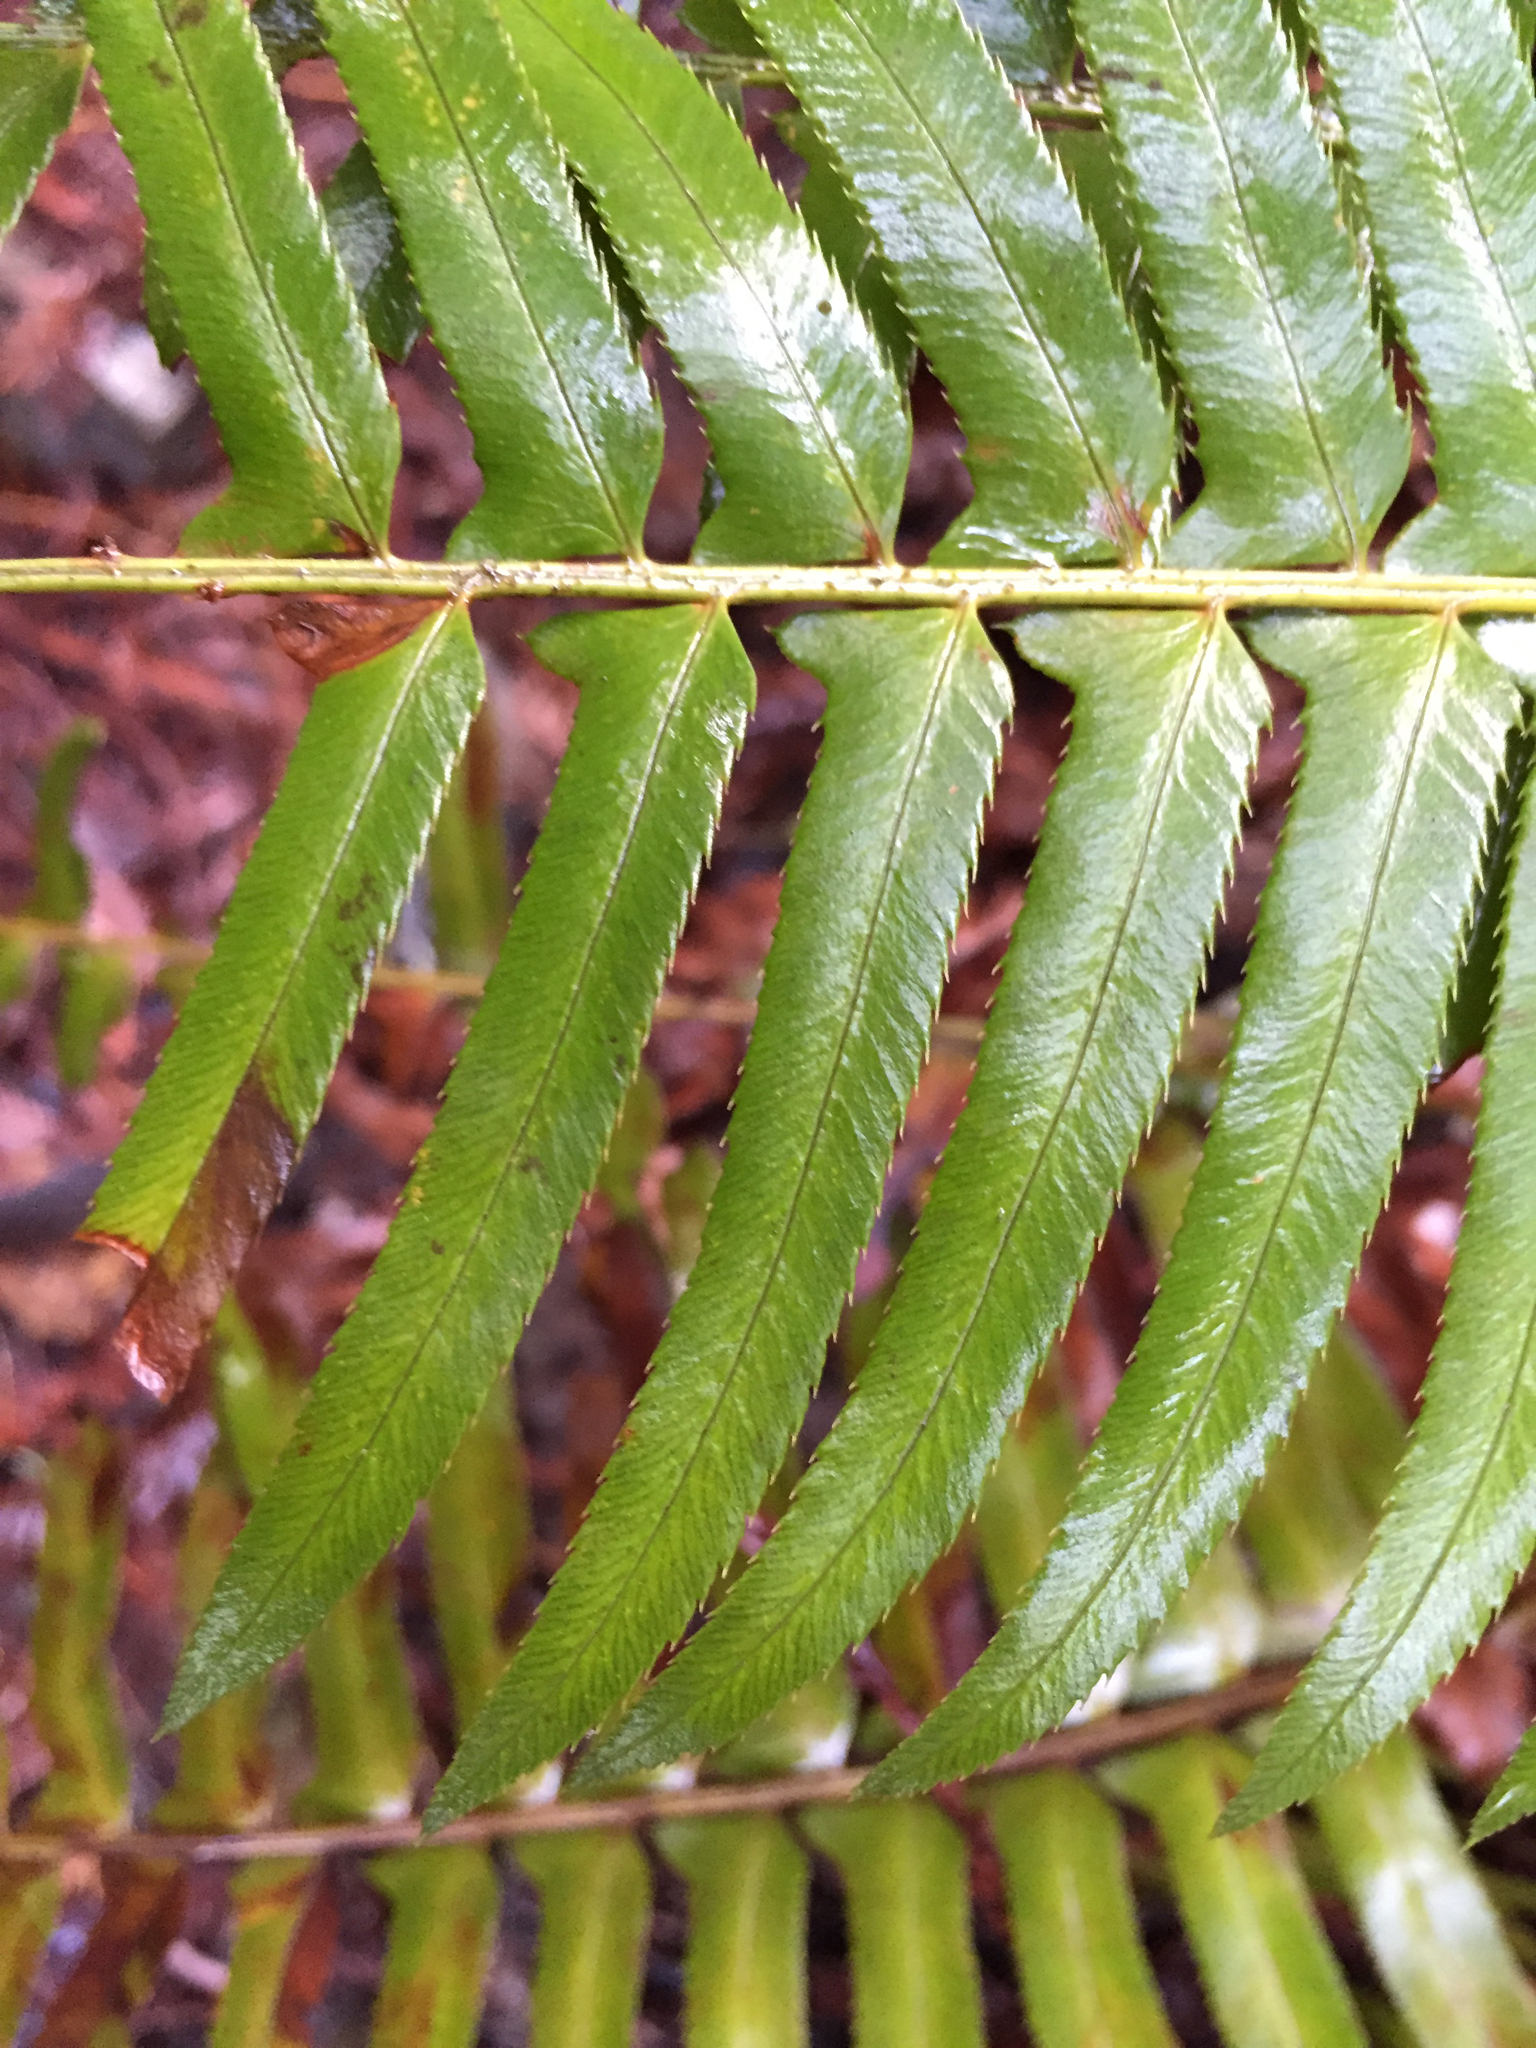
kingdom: Plantae
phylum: Tracheophyta
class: Polypodiopsida
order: Polypodiales
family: Dryopteridaceae
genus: Polystichum
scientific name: Polystichum munitum
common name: Western sword-fern
